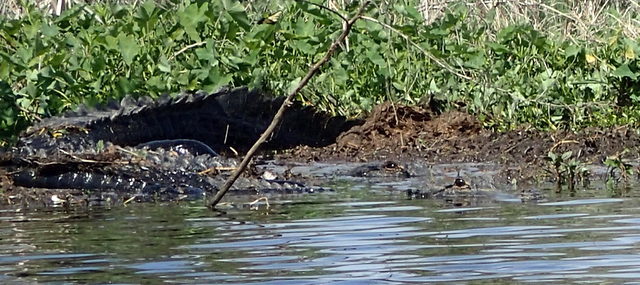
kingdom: Animalia
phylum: Chordata
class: Crocodylia
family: Alligatoridae
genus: Alligator
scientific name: Alligator mississippiensis
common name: American alligator
